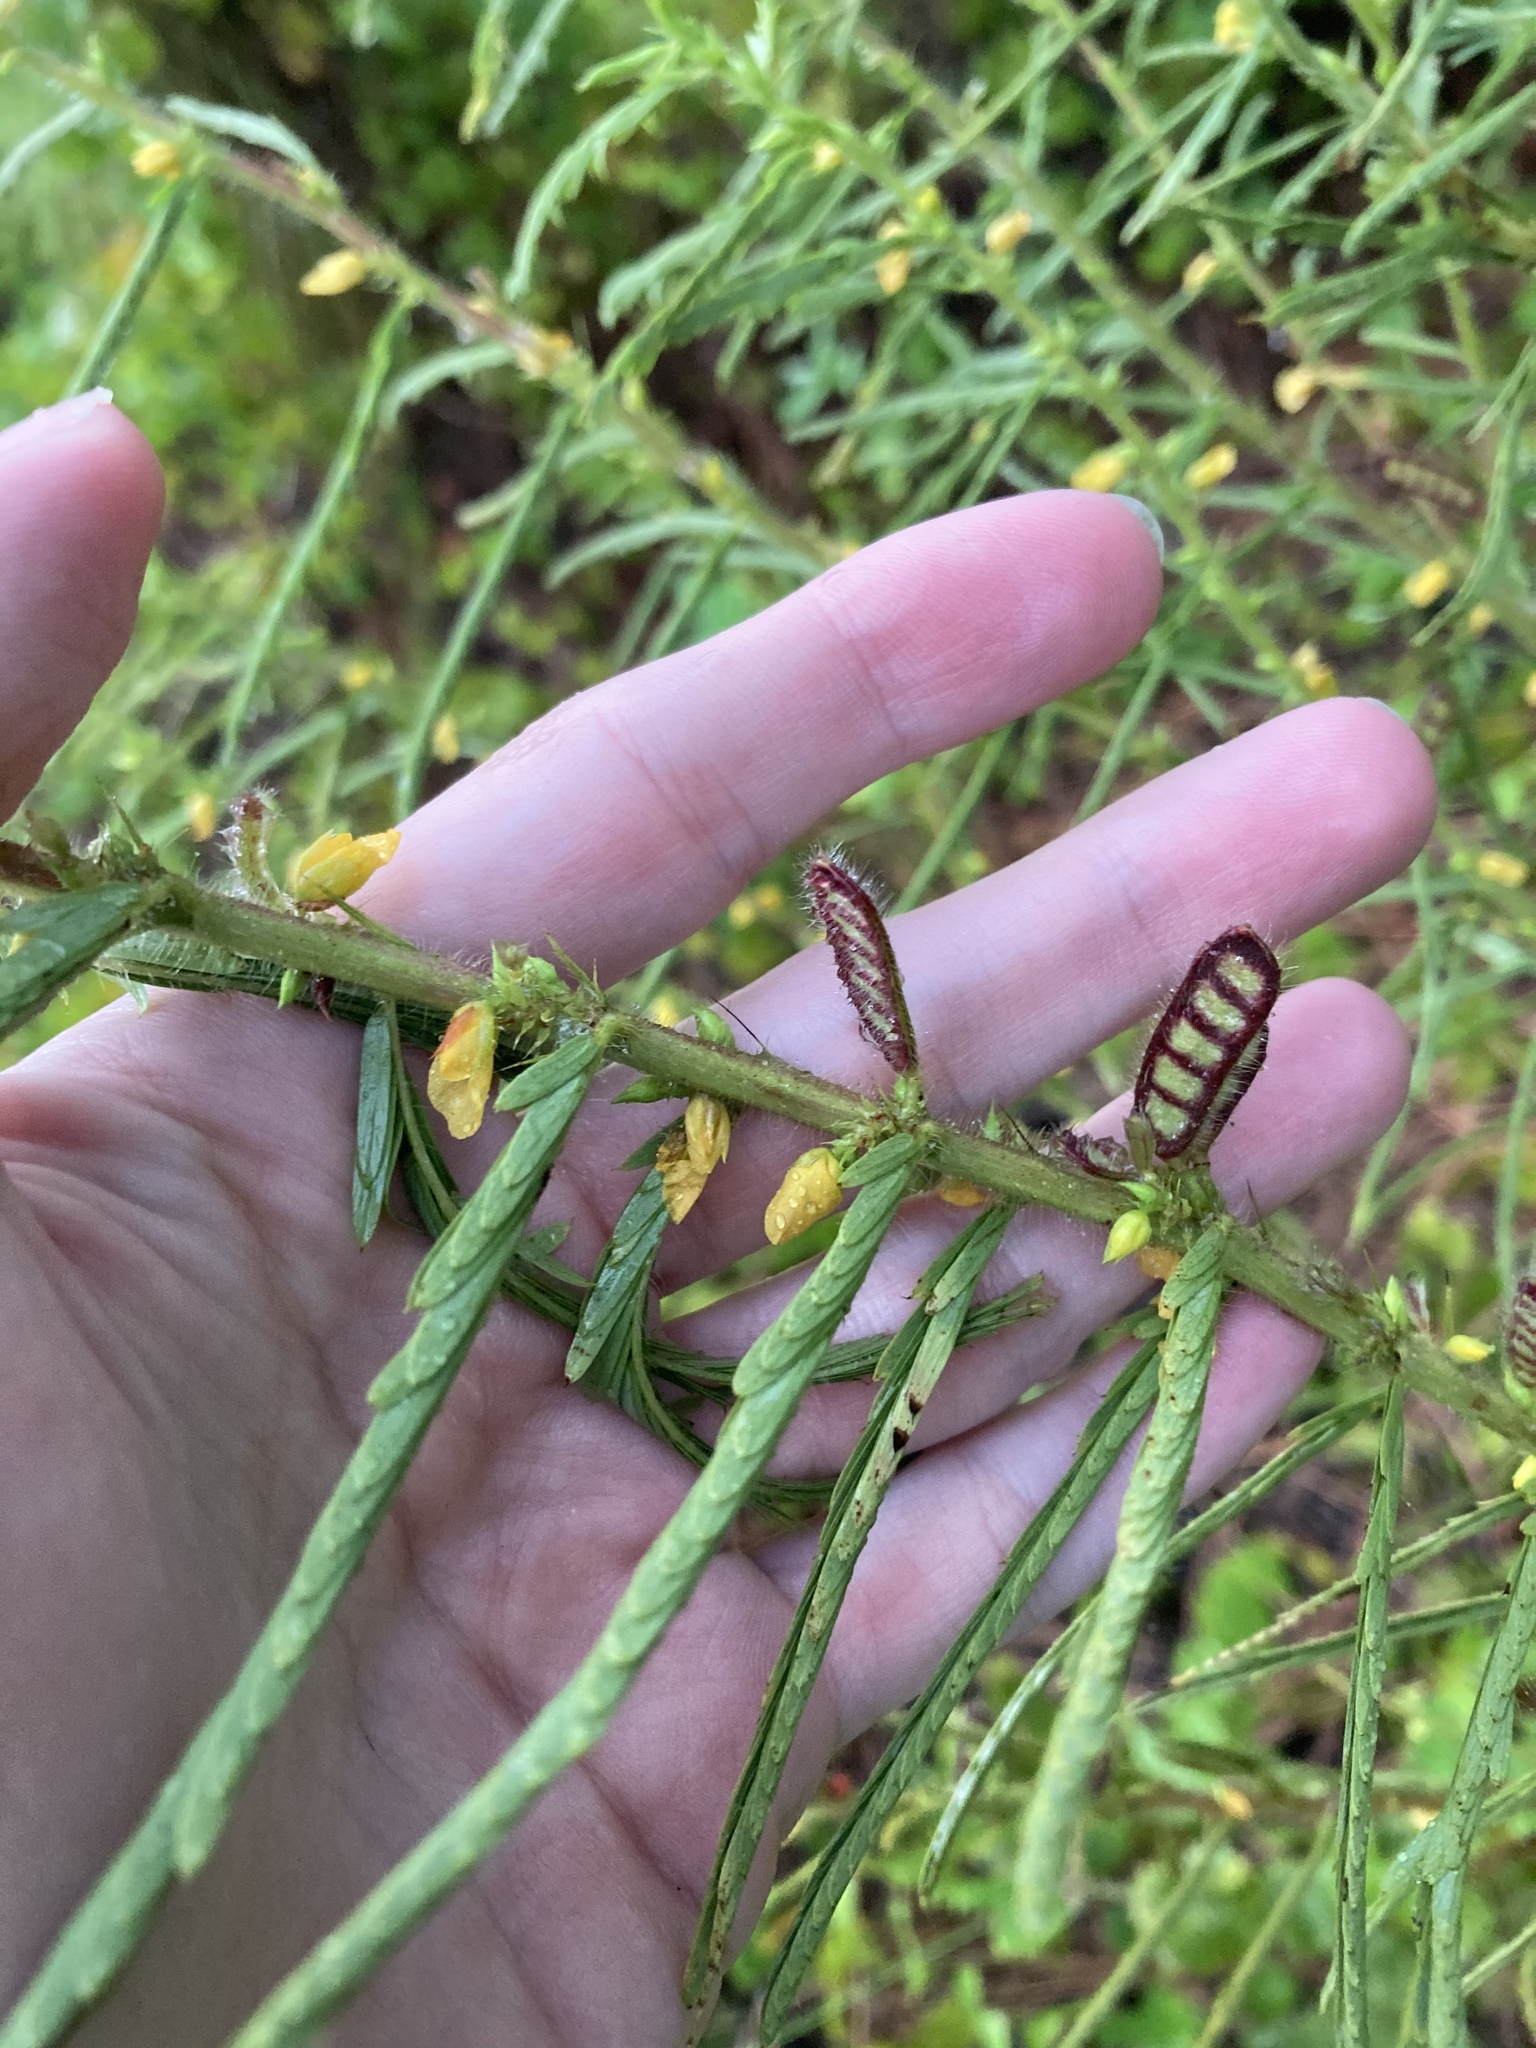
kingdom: Plantae
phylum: Tracheophyta
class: Magnoliopsida
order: Fabales
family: Fabaceae
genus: Chamaecrista
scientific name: Chamaecrista nictitans
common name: Sensitive cassia
